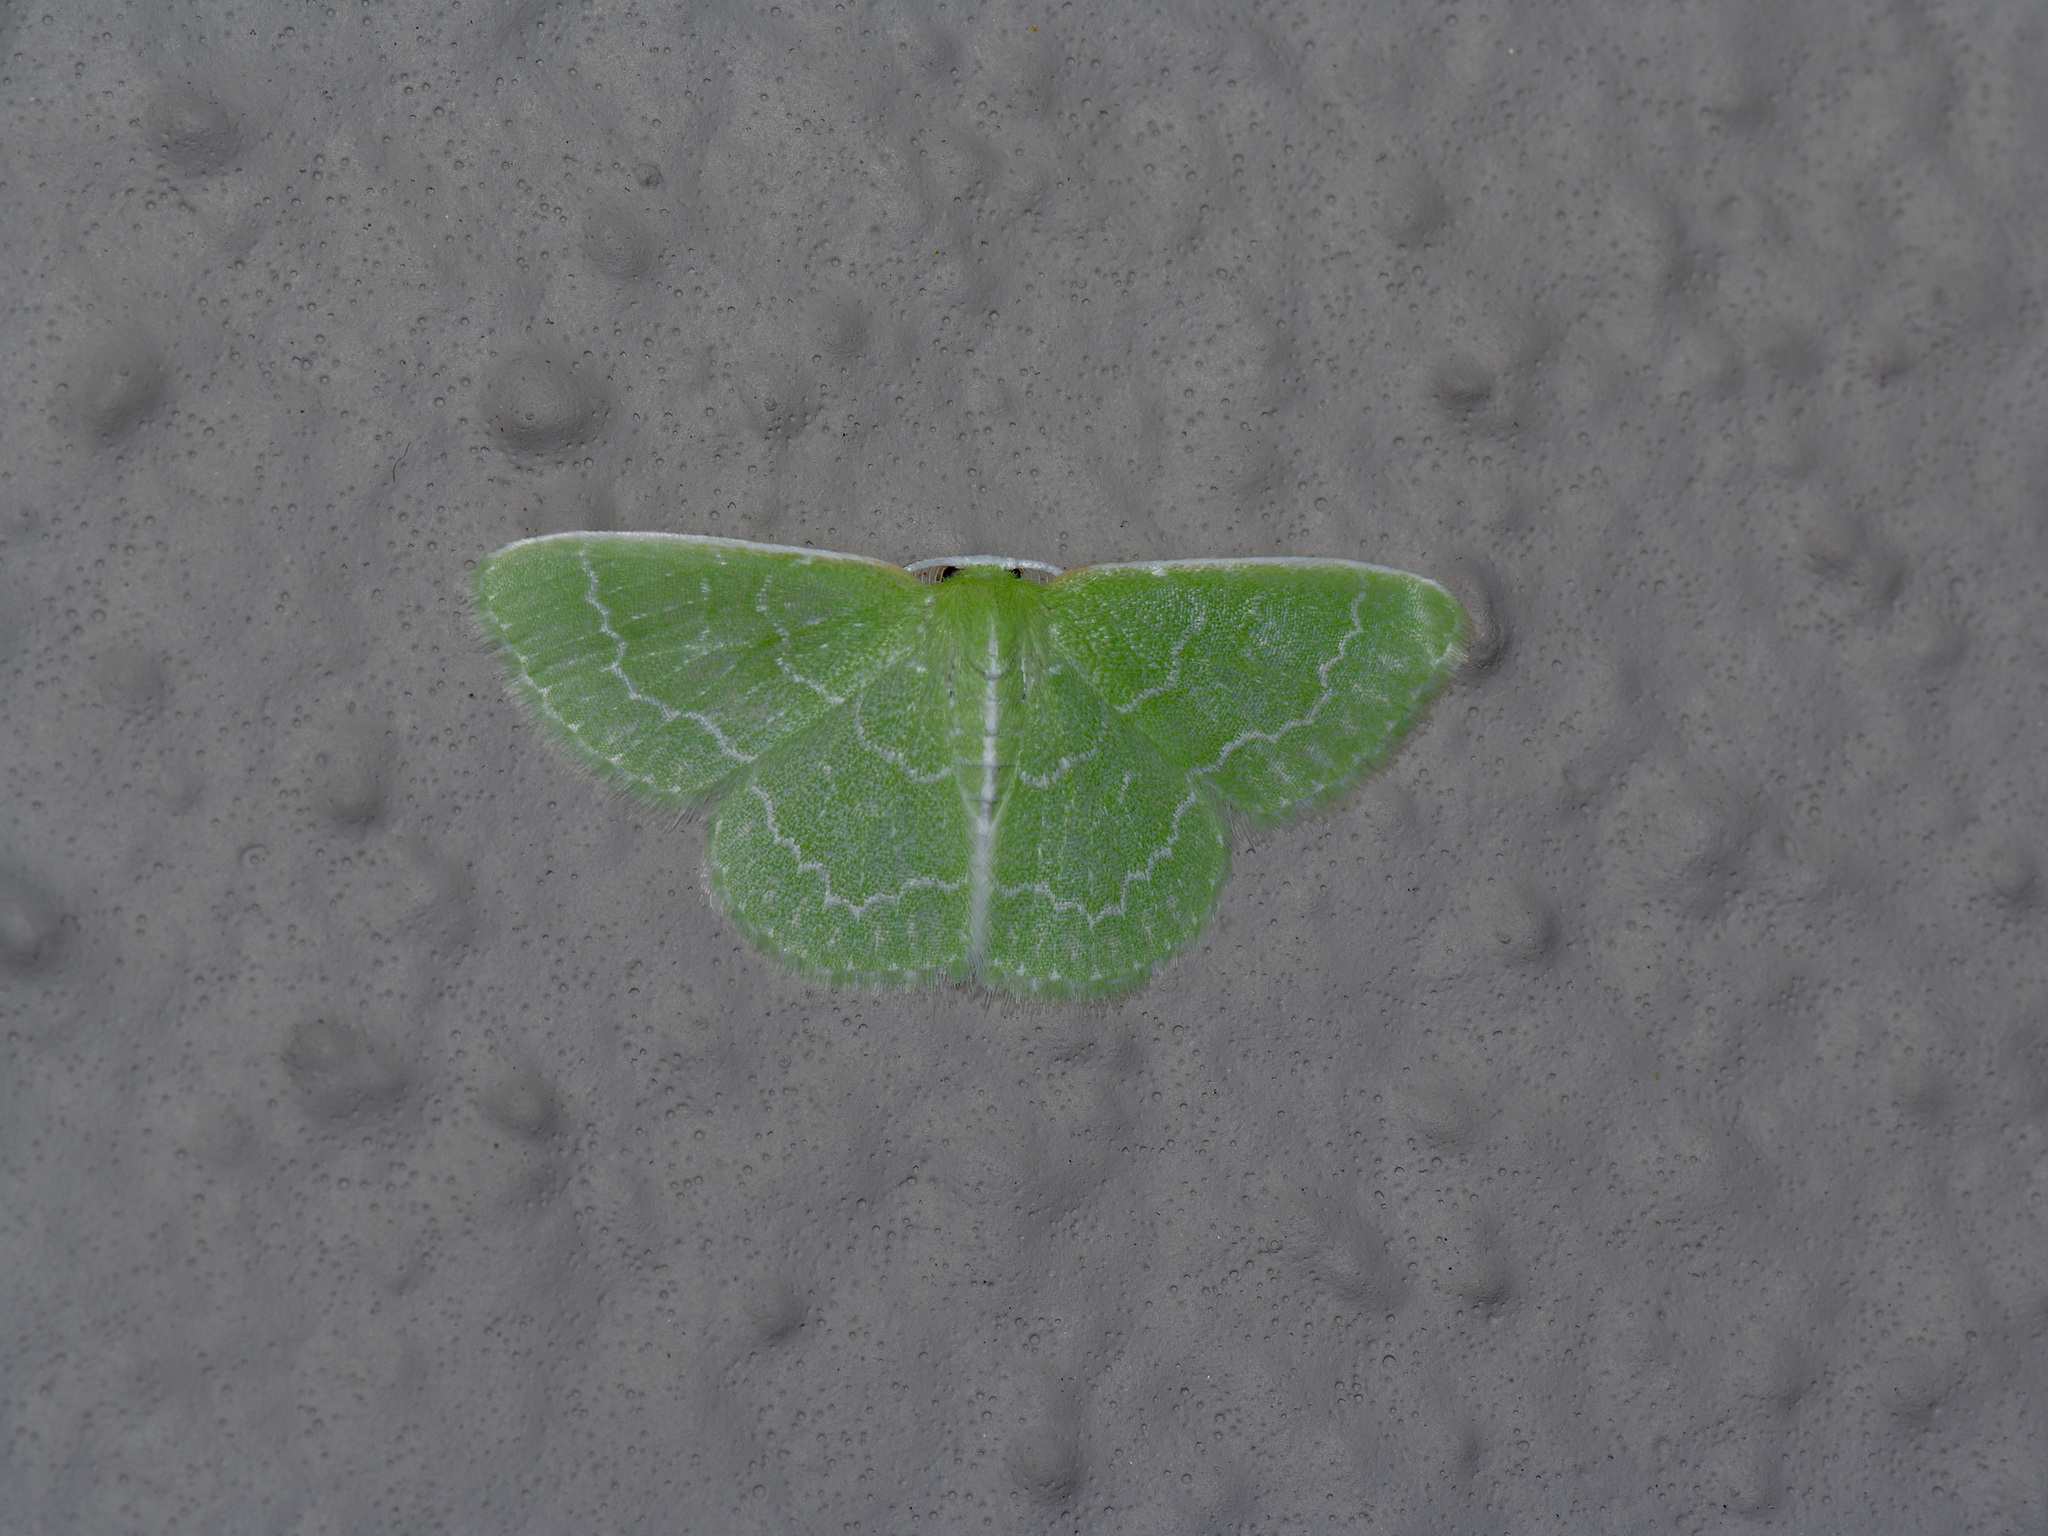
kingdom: Animalia
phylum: Arthropoda
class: Insecta
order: Lepidoptera
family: Geometridae
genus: Synchlora
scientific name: Synchlora frondaria
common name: Southern emerald
